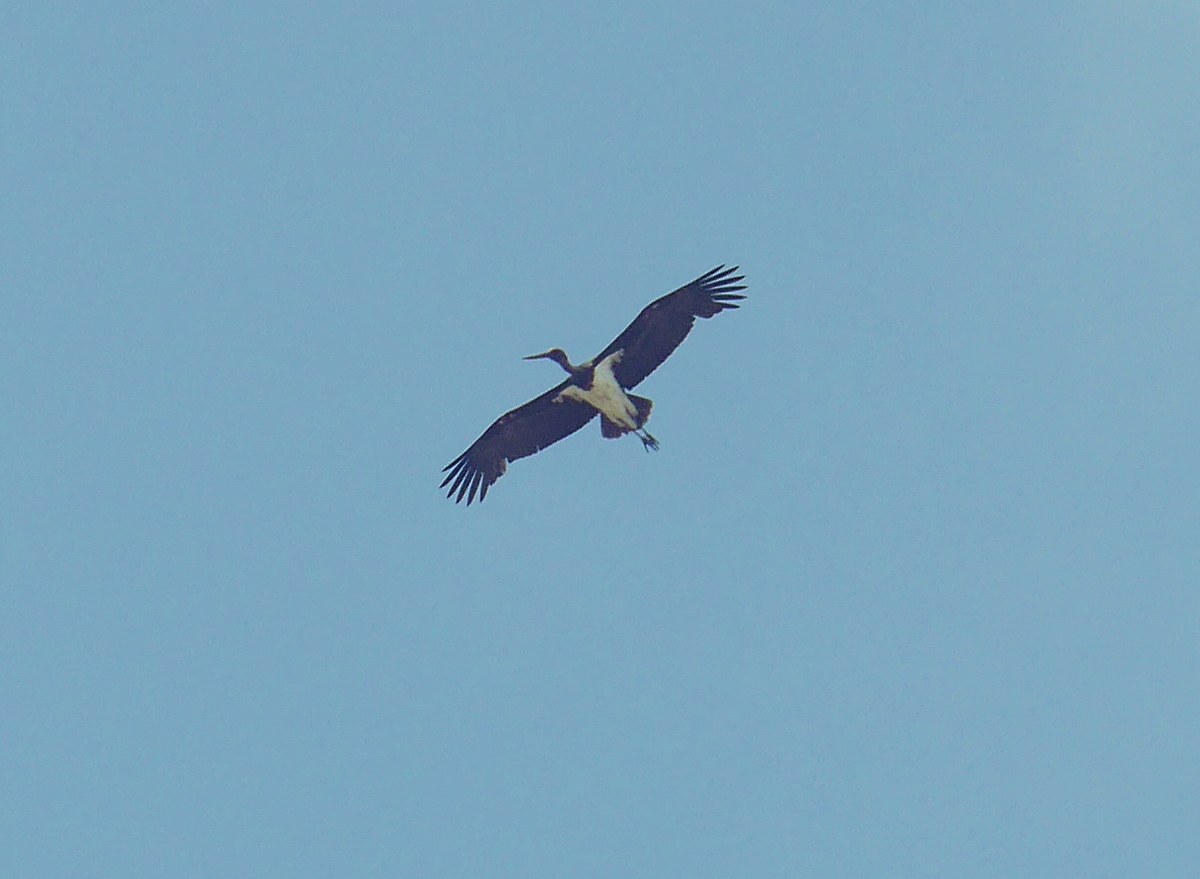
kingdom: Animalia
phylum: Chordata
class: Aves
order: Ciconiiformes
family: Ciconiidae
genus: Ciconia
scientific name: Ciconia nigra
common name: Black stork
